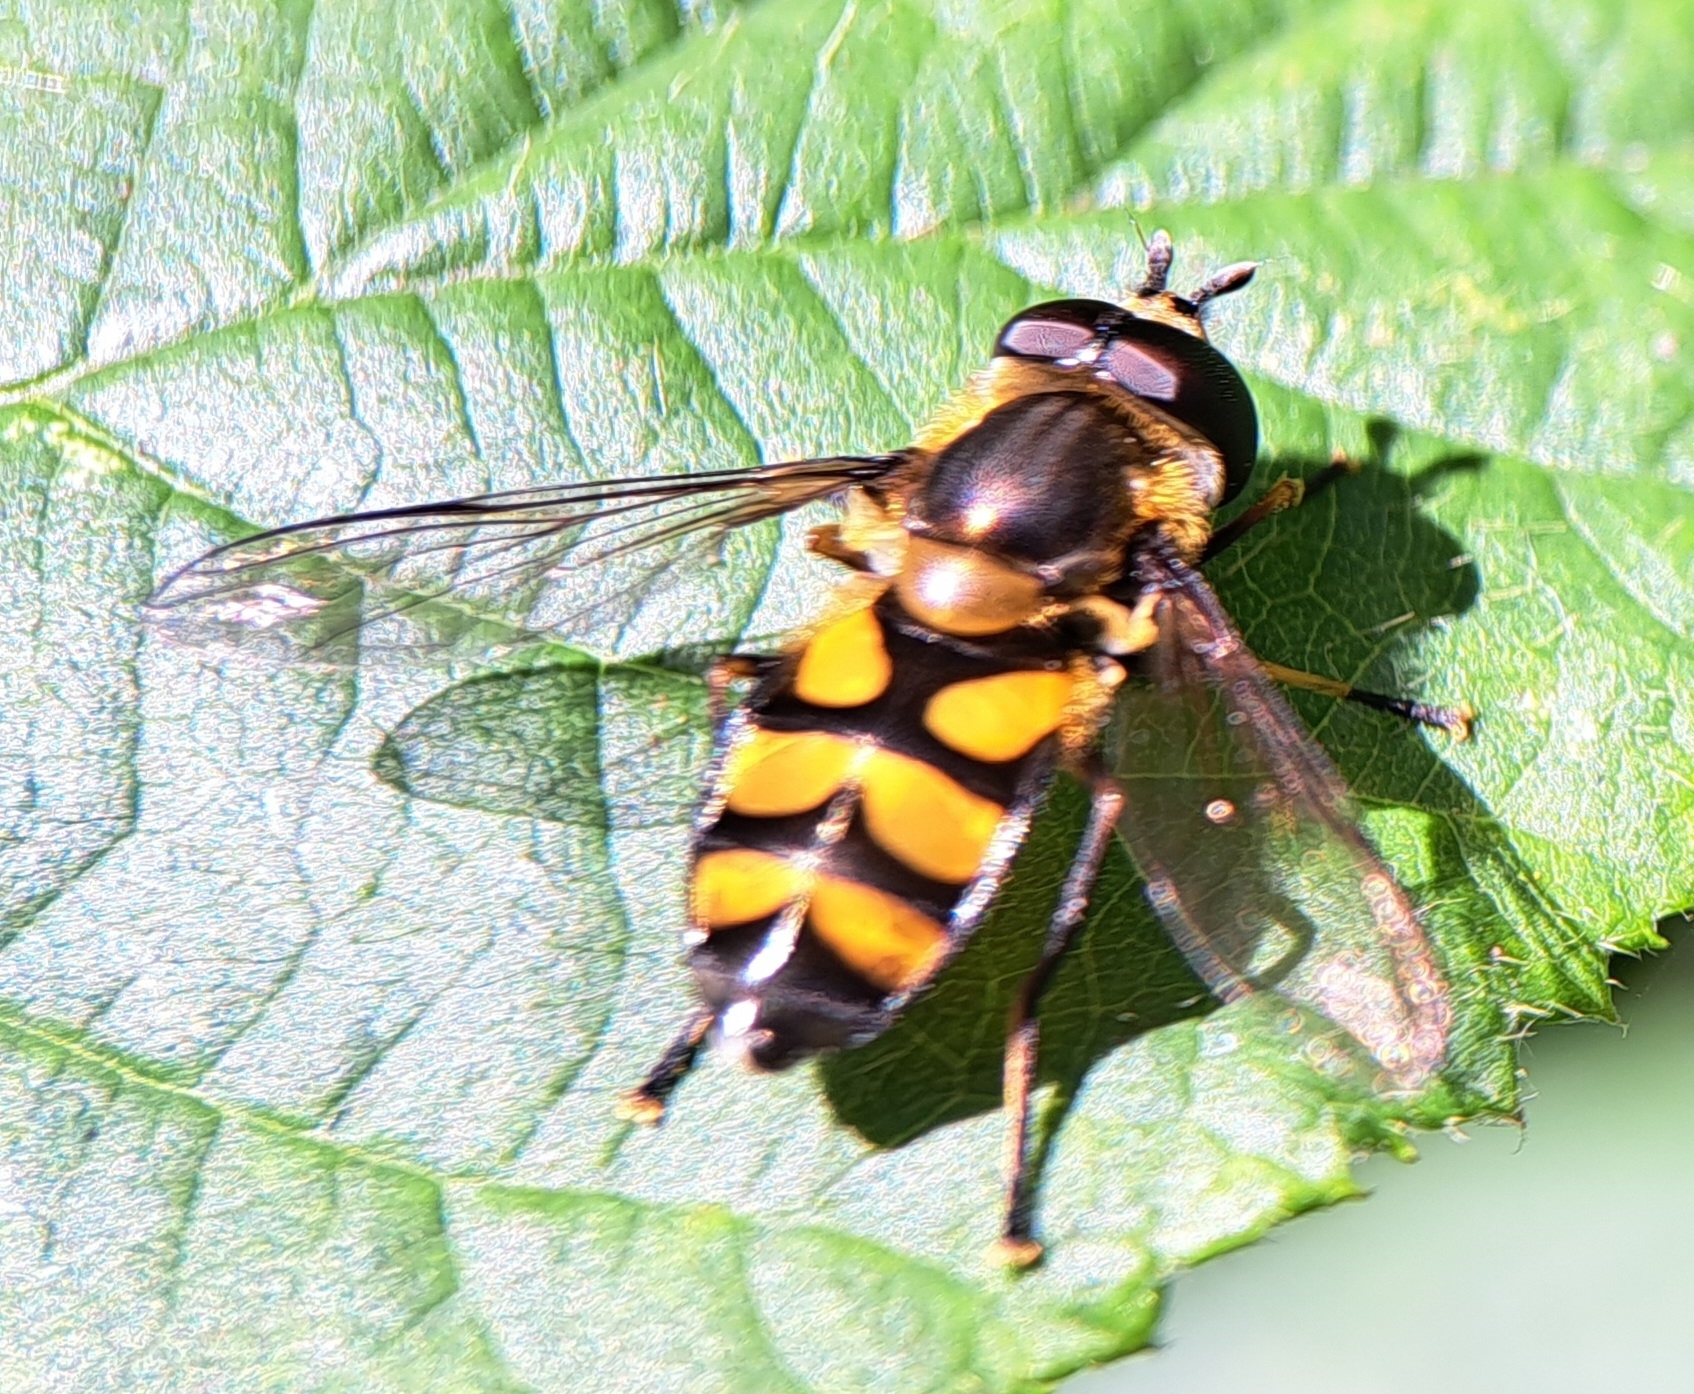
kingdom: Animalia
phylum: Arthropoda
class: Insecta
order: Diptera
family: Syrphidae
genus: Didea
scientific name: Didea fasciata
